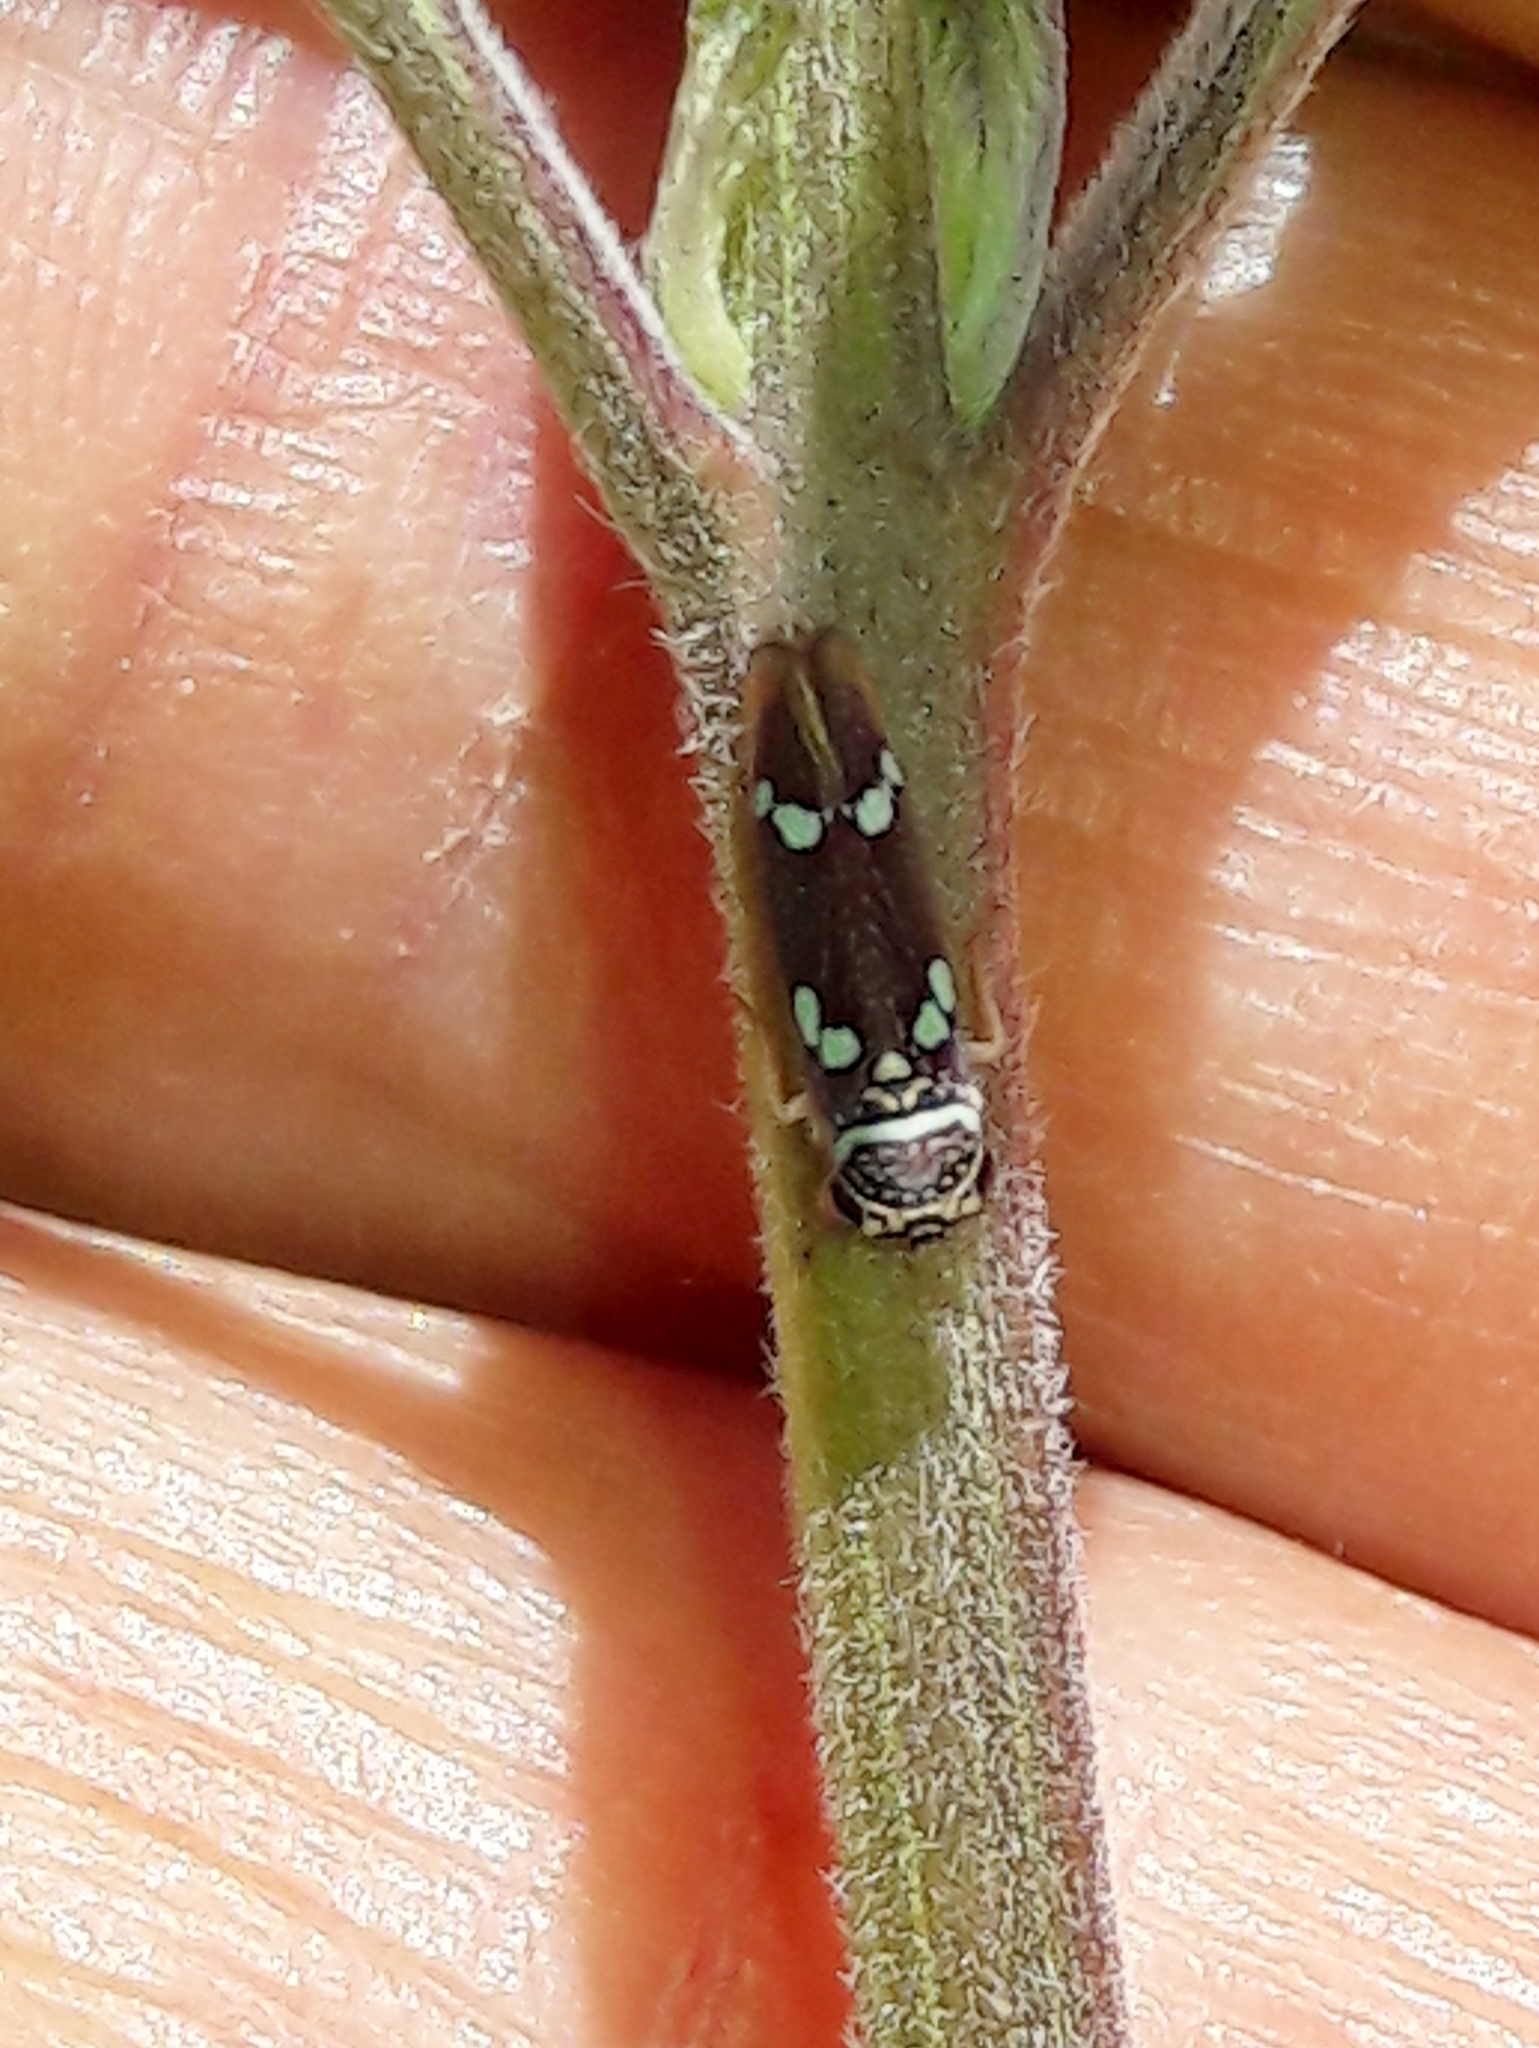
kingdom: Animalia
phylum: Arthropoda
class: Insecta
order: Hemiptera
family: Cicadellidae
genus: Macugonalia
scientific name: Macugonalia leucomelas
